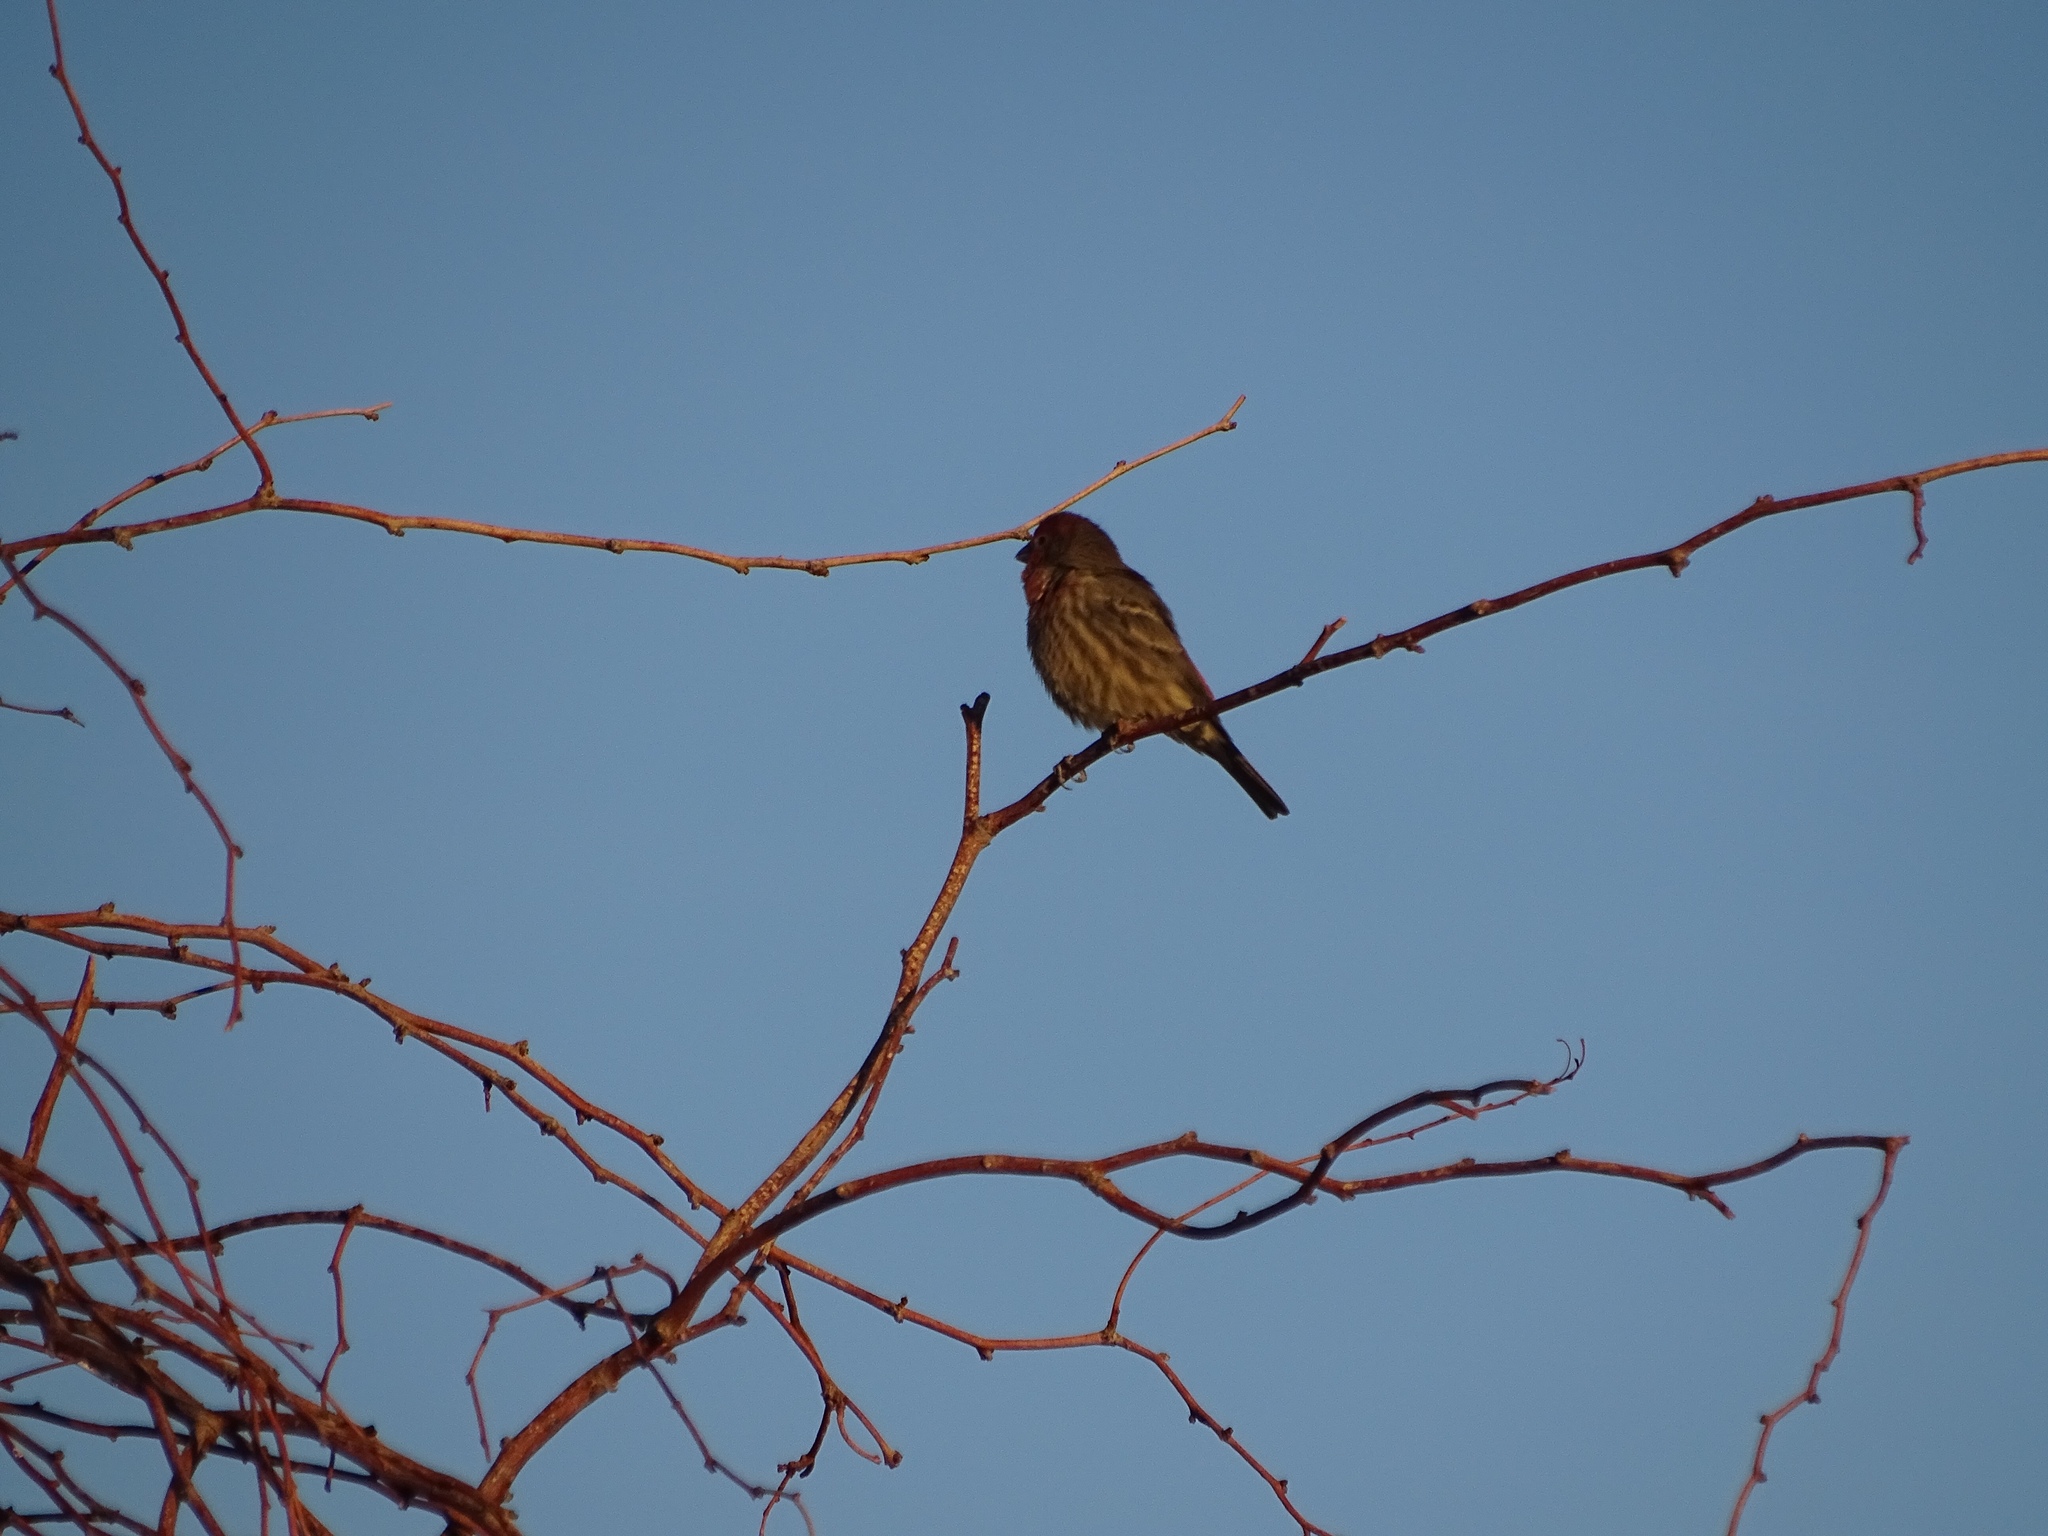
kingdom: Animalia
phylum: Chordata
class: Aves
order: Passeriformes
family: Fringillidae
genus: Haemorhous
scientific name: Haemorhous mexicanus
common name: House finch
